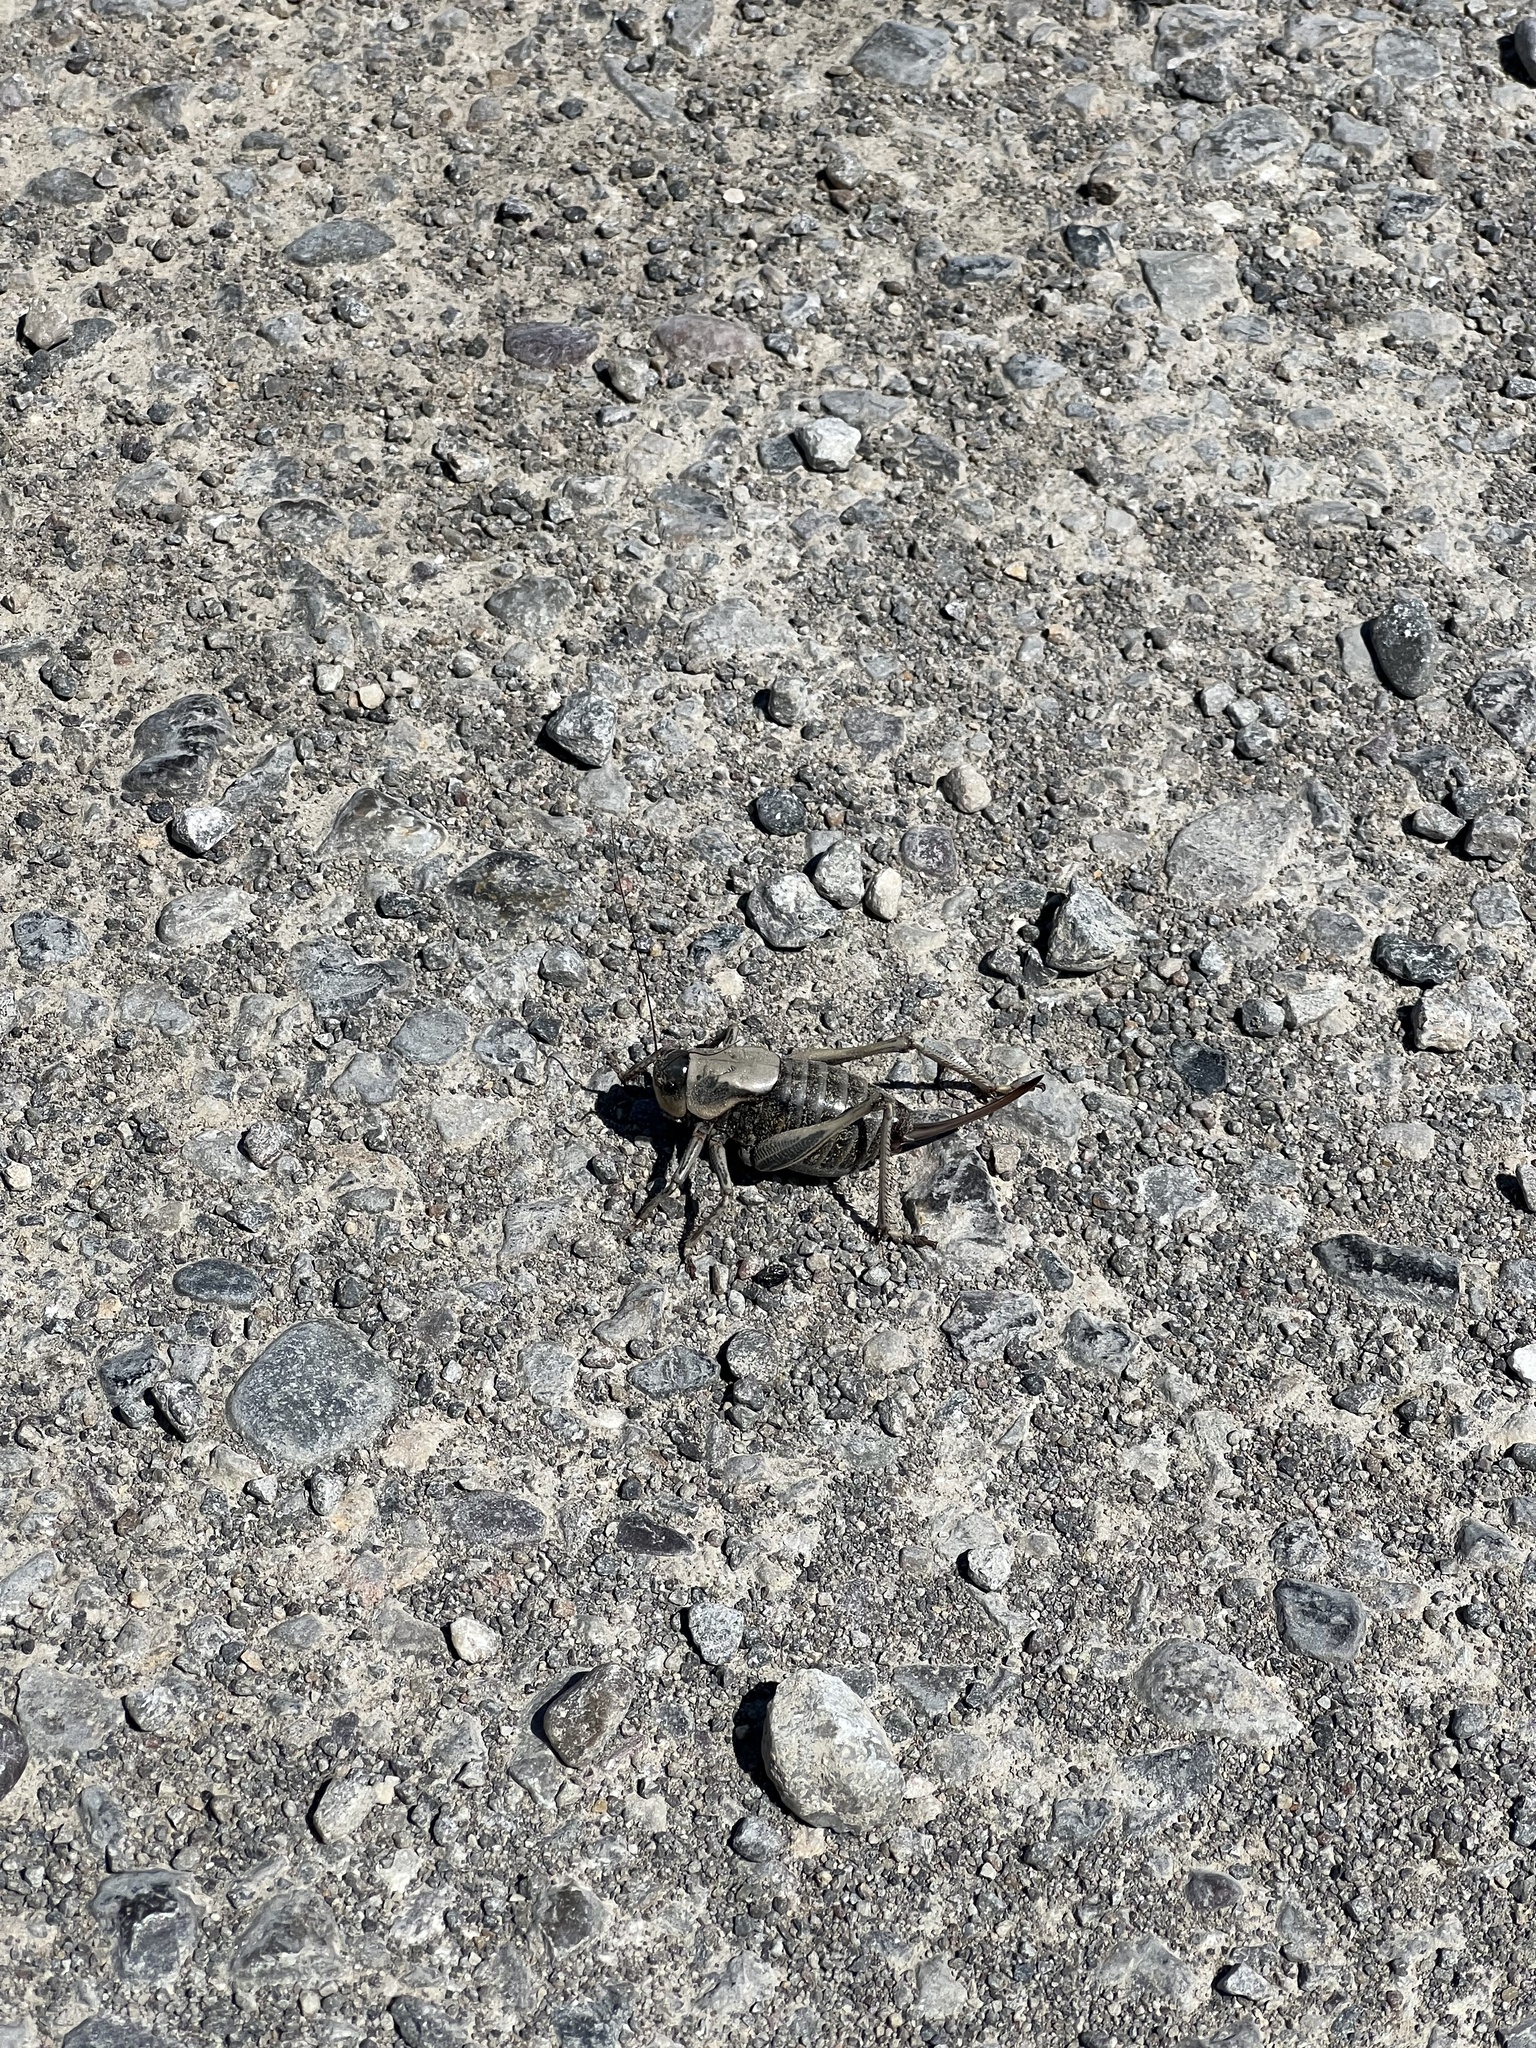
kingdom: Animalia
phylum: Arthropoda
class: Insecta
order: Orthoptera
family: Tettigoniidae
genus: Anabrus
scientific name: Anabrus simplex
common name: Mormon cricket
